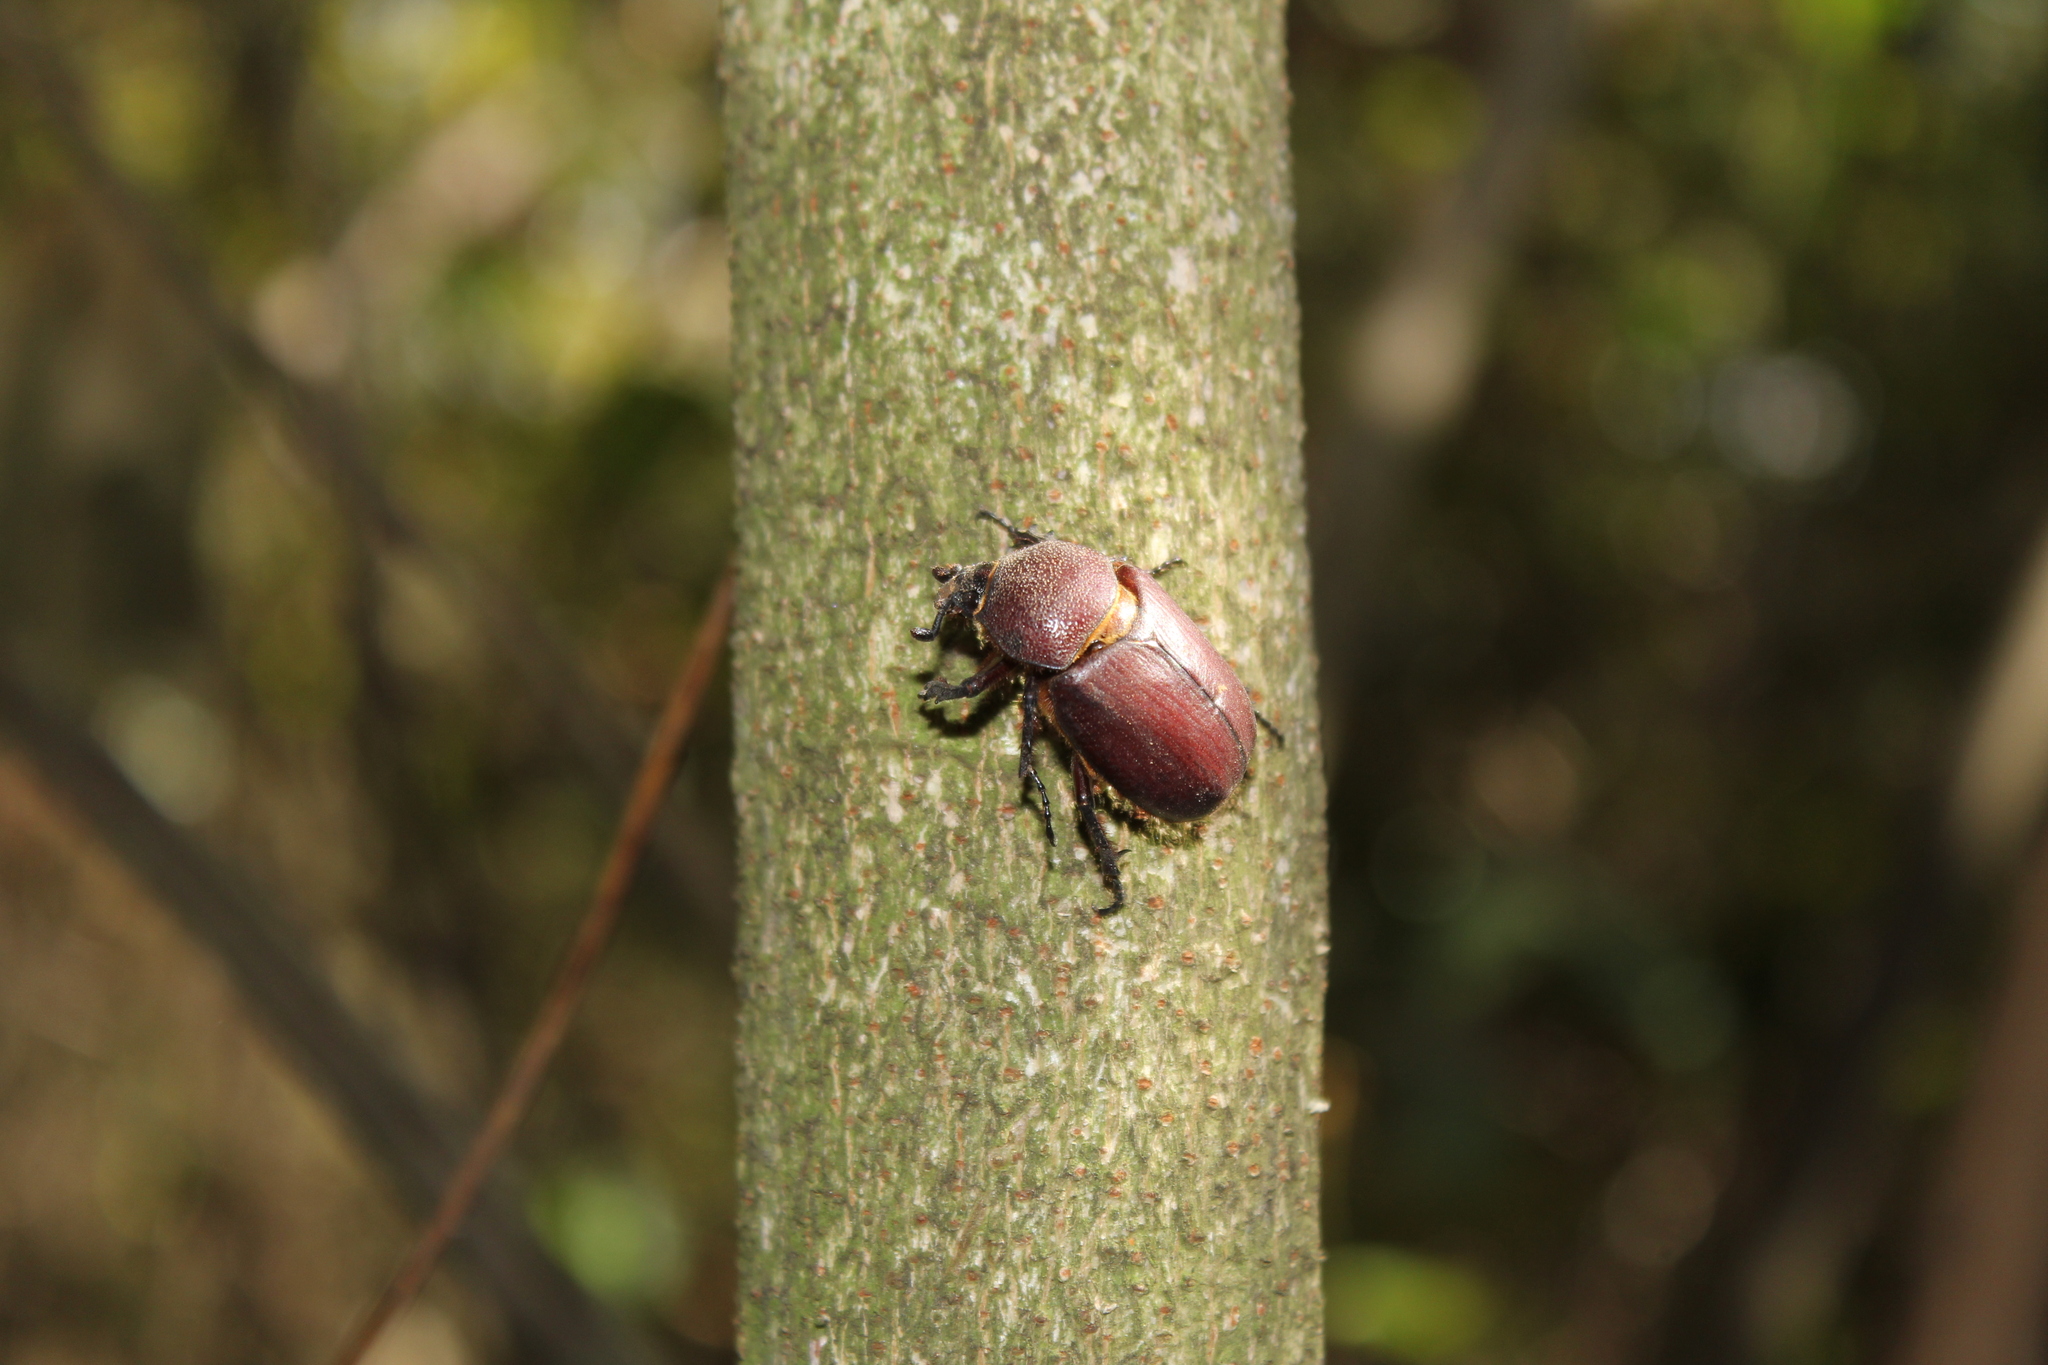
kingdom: Animalia
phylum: Arthropoda
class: Insecta
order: Coleoptera
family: Scarabaeidae
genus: Coelosis
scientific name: Coelosis bicornis
